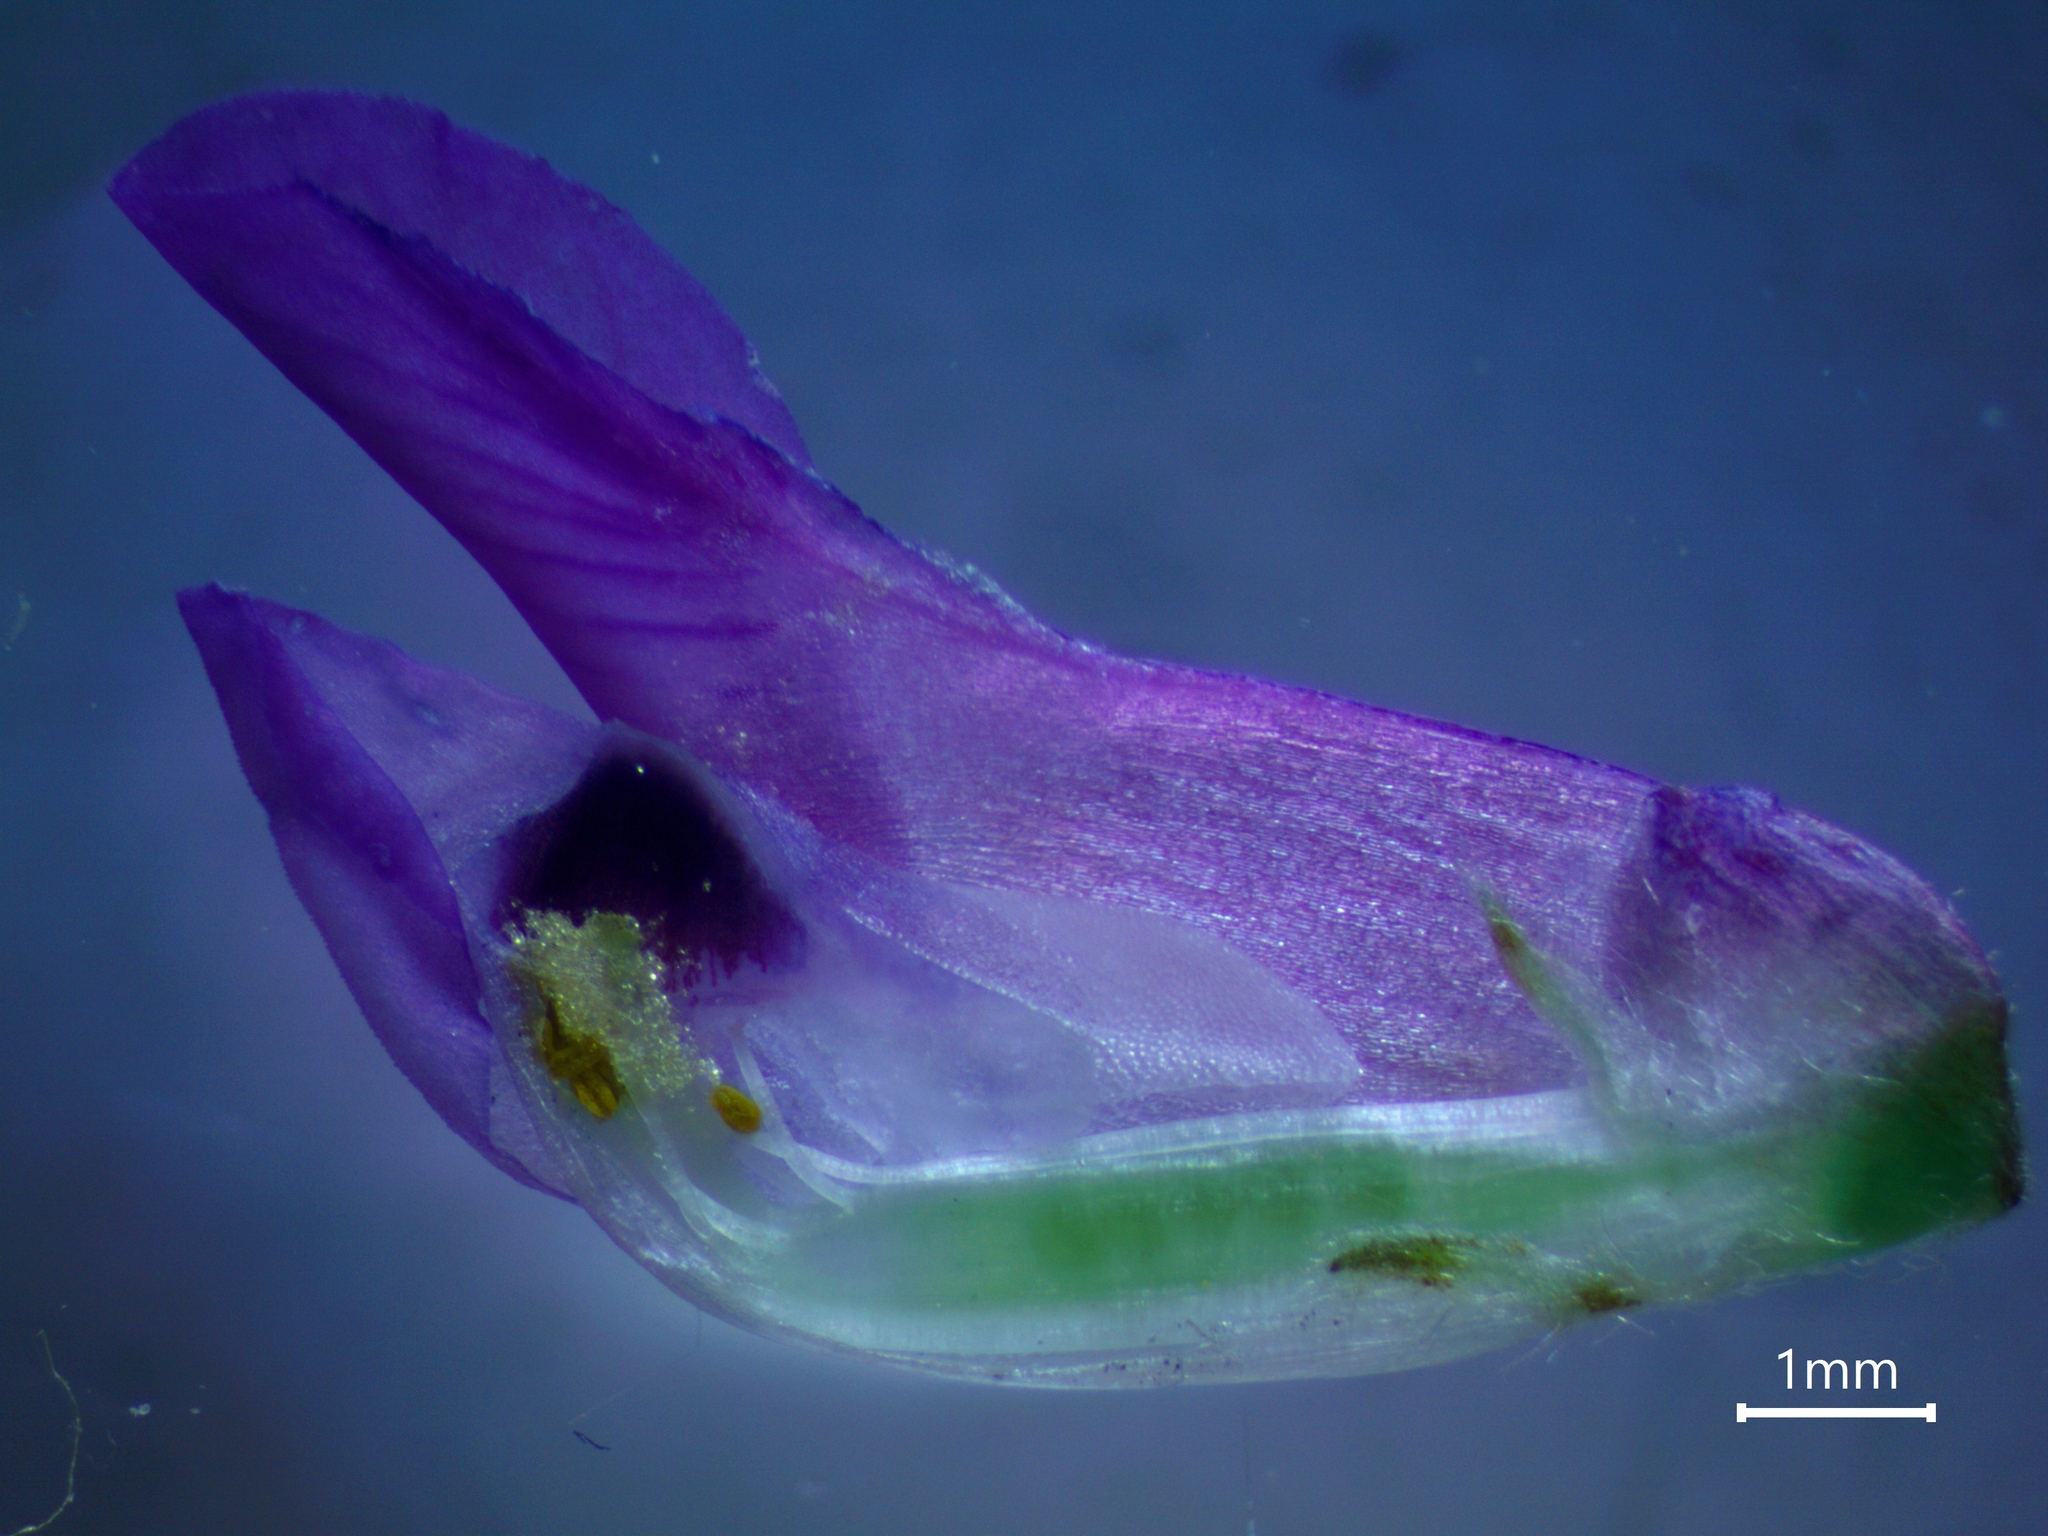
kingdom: Plantae
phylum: Tracheophyta
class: Magnoliopsida
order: Fabales
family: Fabaceae
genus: Vicia
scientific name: Vicia cracca
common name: Bird vetch
